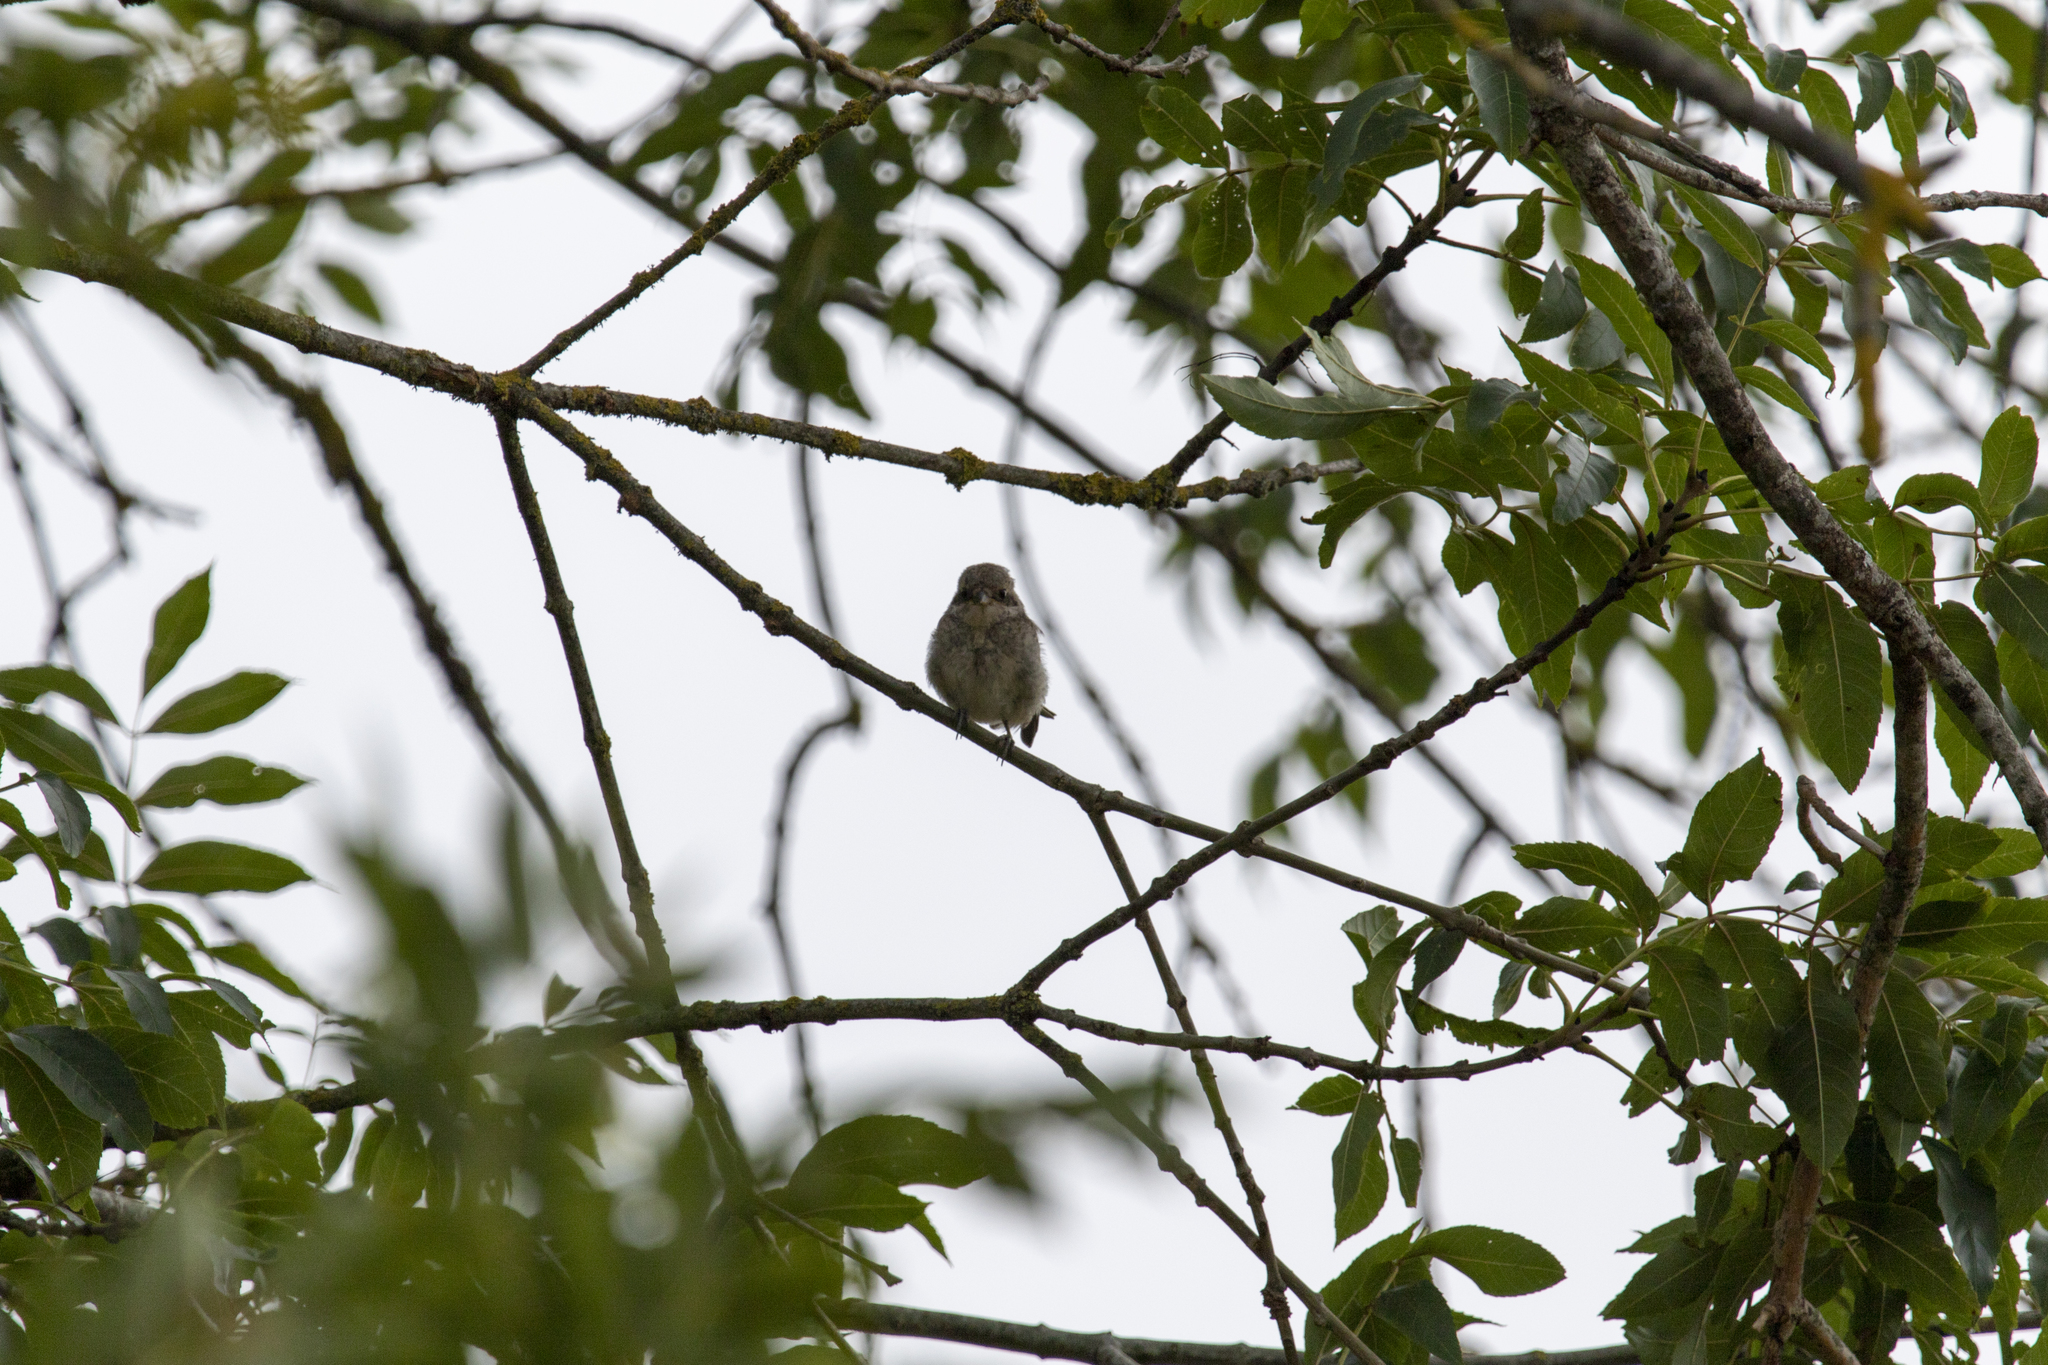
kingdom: Animalia
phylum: Chordata
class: Aves
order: Passeriformes
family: Laniidae
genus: Lanius
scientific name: Lanius collurio
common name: Red-backed shrike
